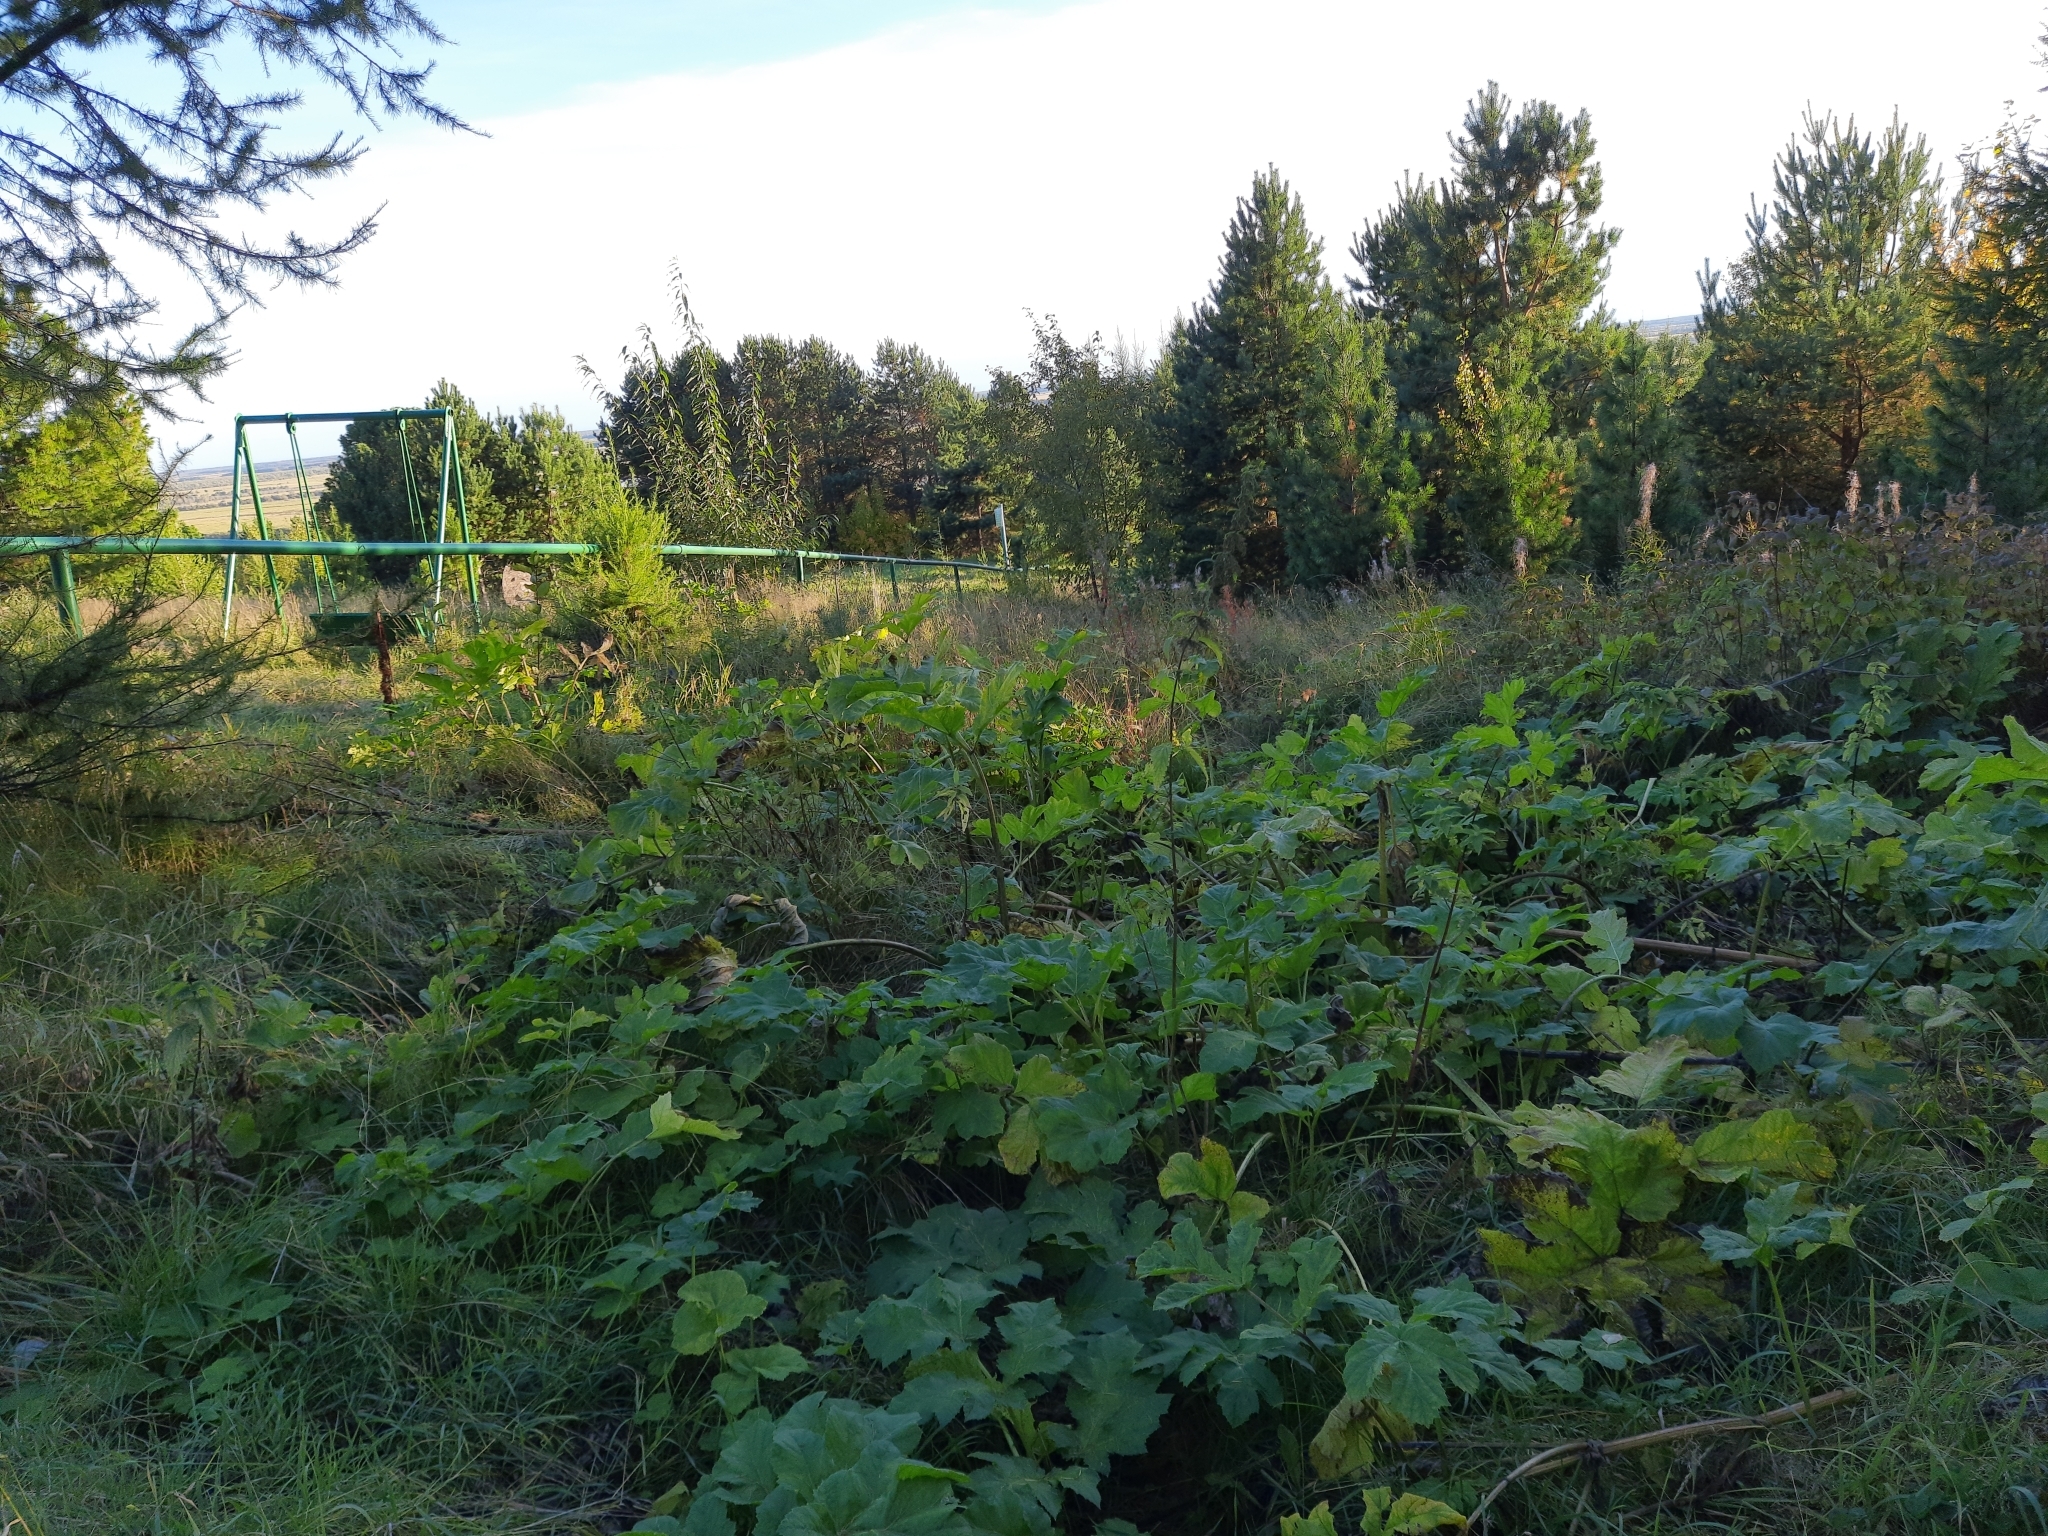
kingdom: Plantae
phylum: Tracheophyta
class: Magnoliopsida
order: Apiales
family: Apiaceae
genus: Heracleum
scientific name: Heracleum sosnowskyi
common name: Sosnowsky's hogweed
